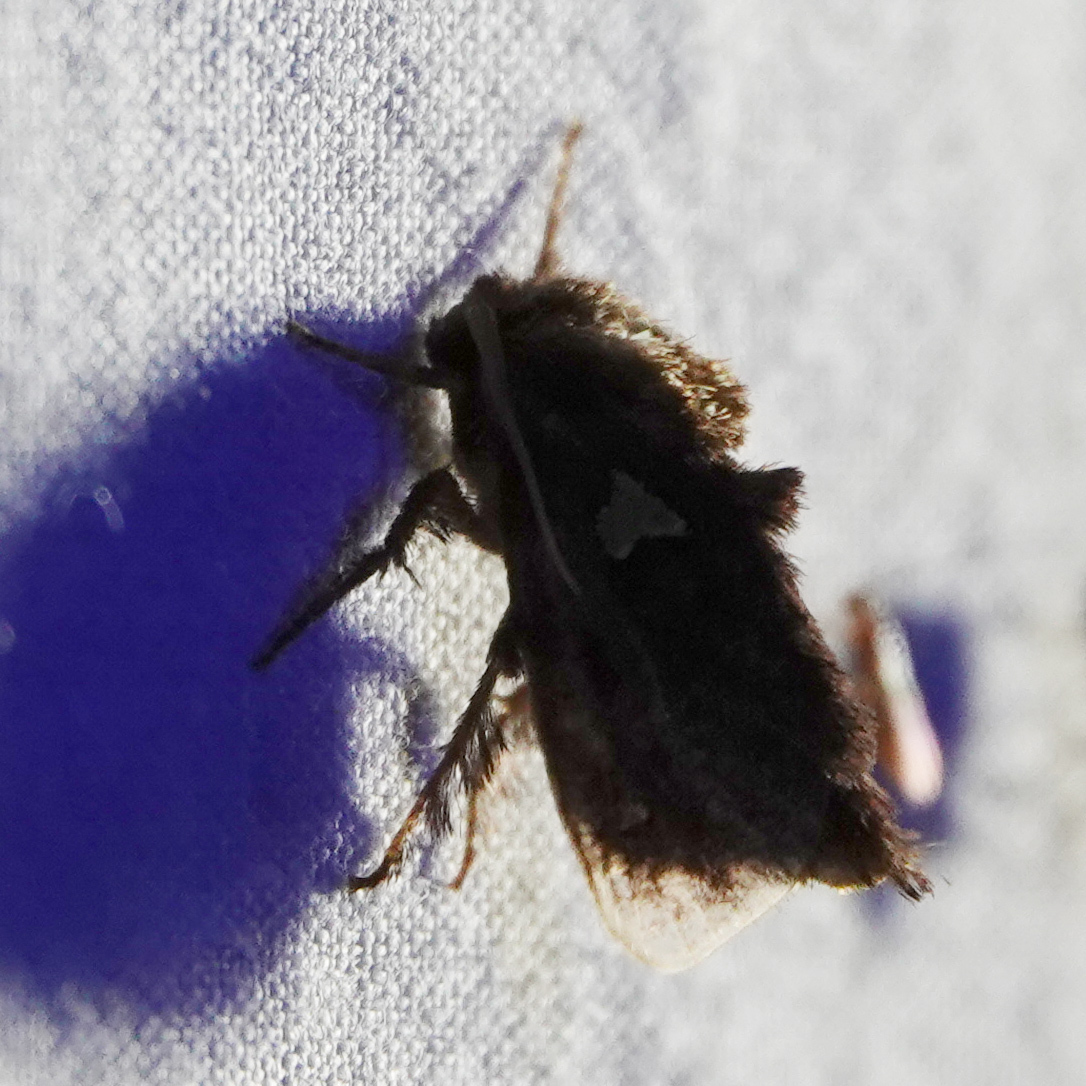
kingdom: Animalia
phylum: Arthropoda
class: Insecta
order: Lepidoptera
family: Limacodidae
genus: Euclea
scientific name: Euclea delphinii
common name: Spiny oak-slug moth
